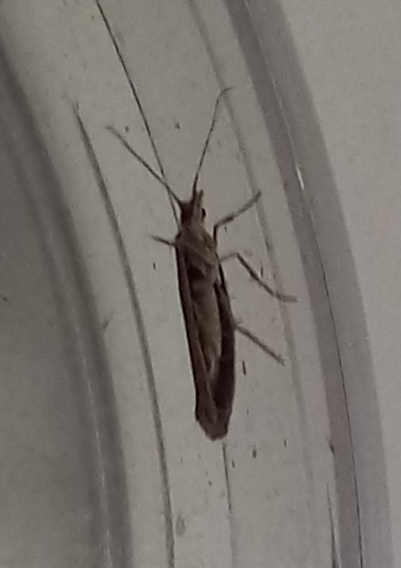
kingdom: Animalia
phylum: Arthropoda
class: Insecta
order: Lepidoptera
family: Plutellidae
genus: Plutella
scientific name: Plutella xylostella
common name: Diamond-back moth
